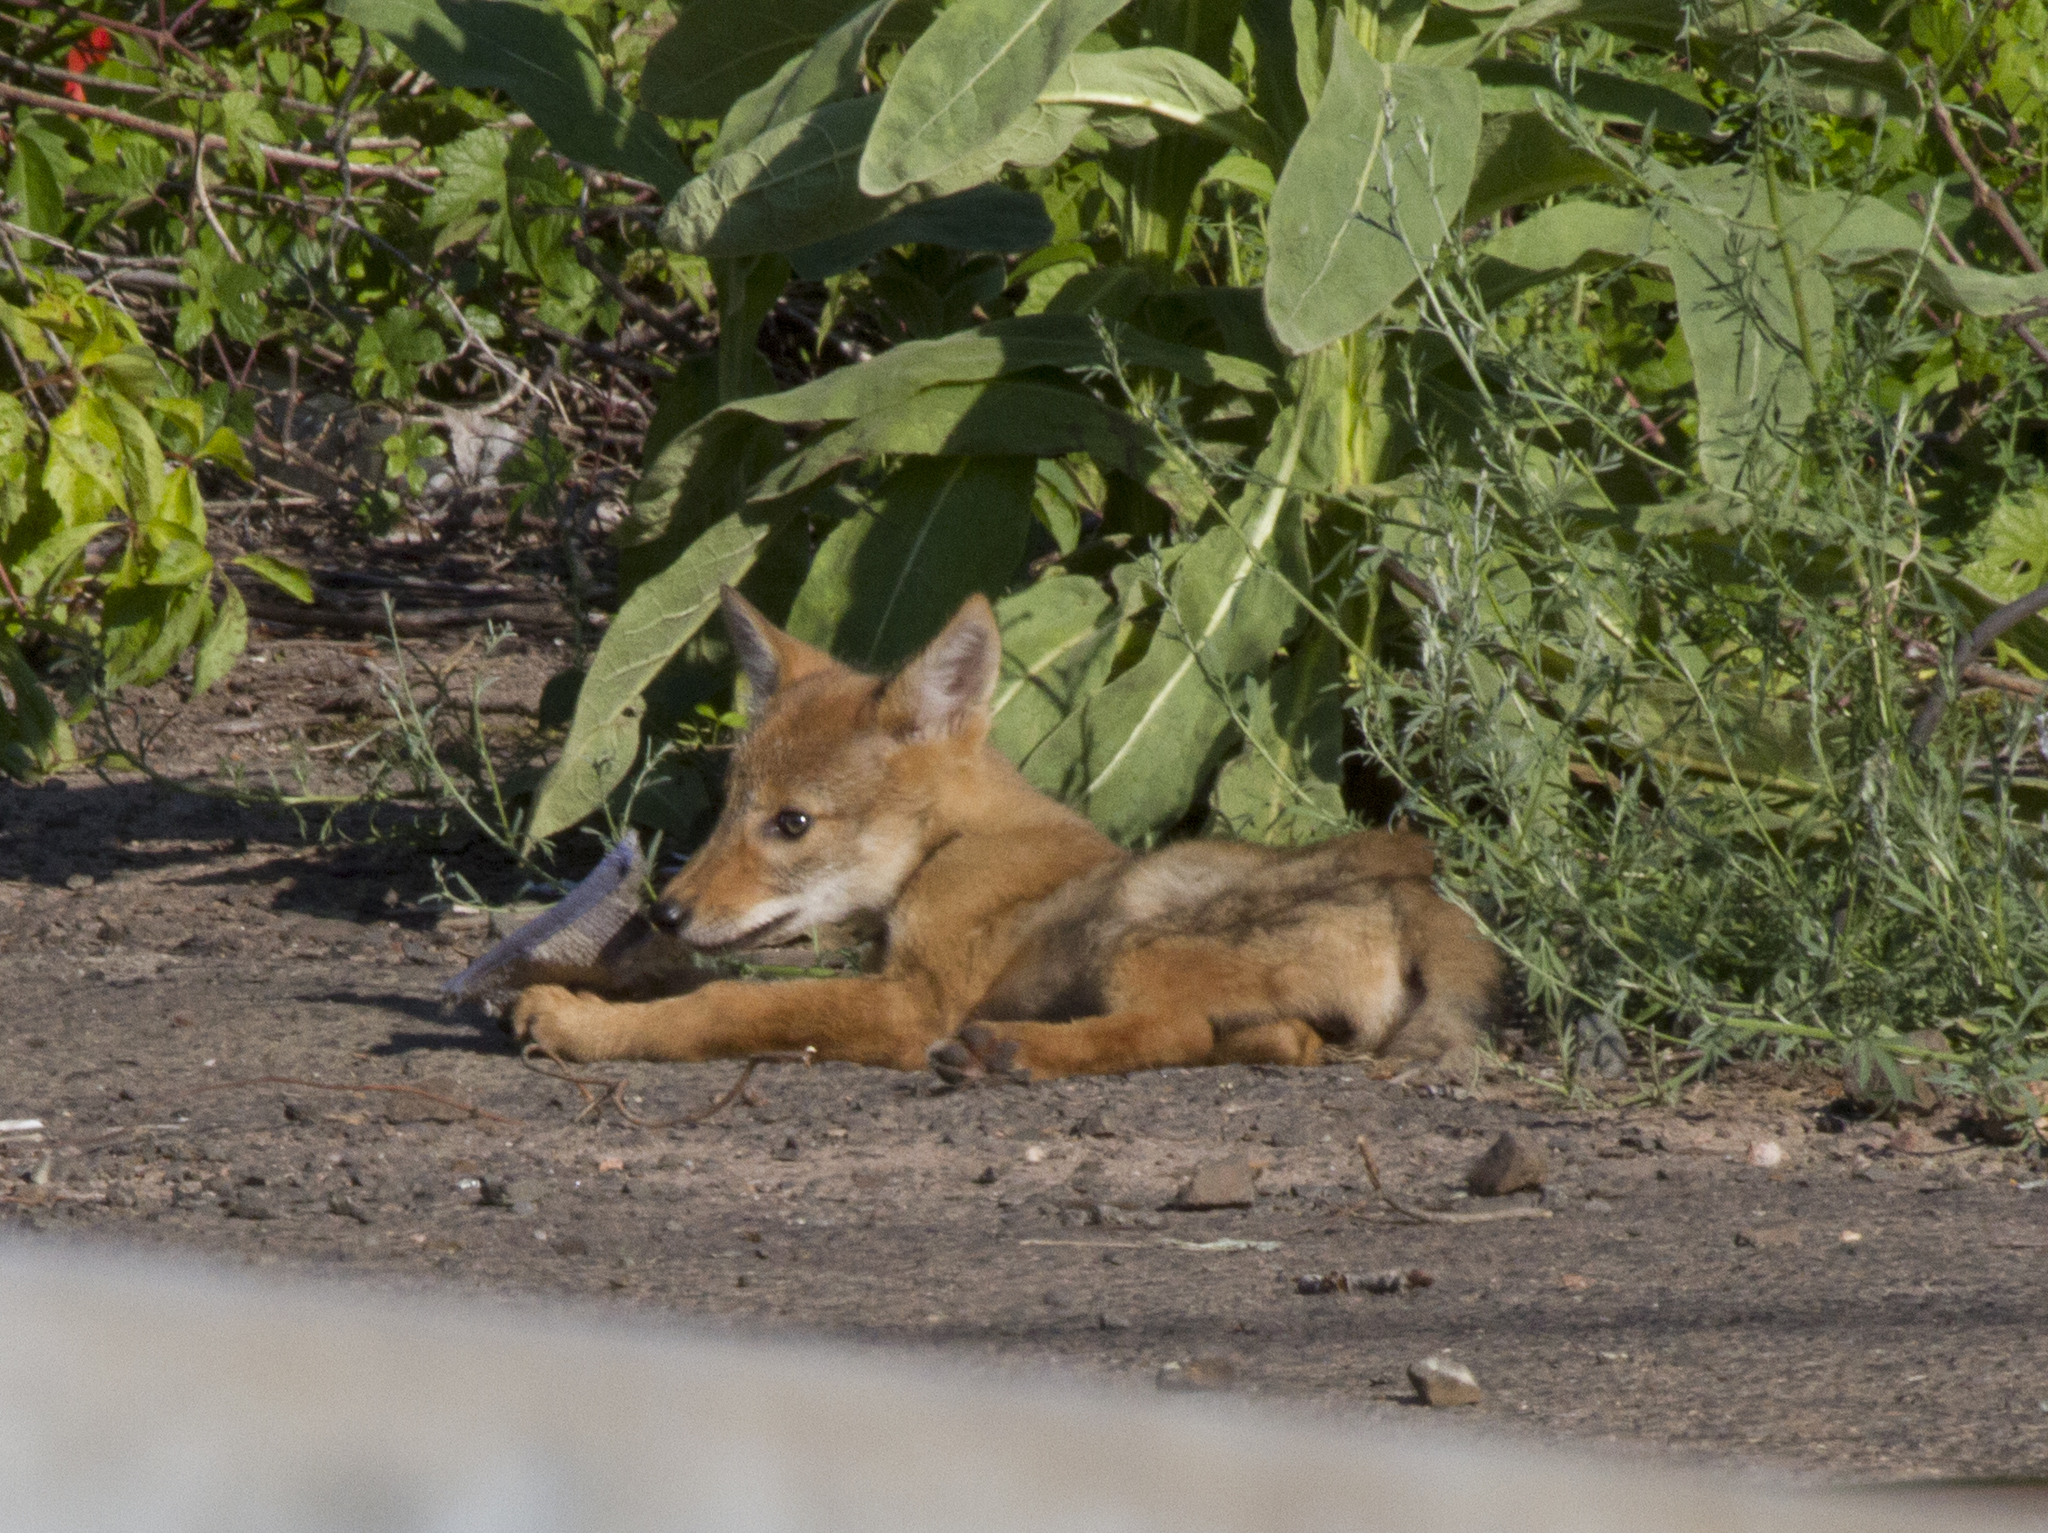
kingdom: Animalia
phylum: Chordata
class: Mammalia
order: Carnivora
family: Canidae
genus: Canis
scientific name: Canis latrans
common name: Coyote
